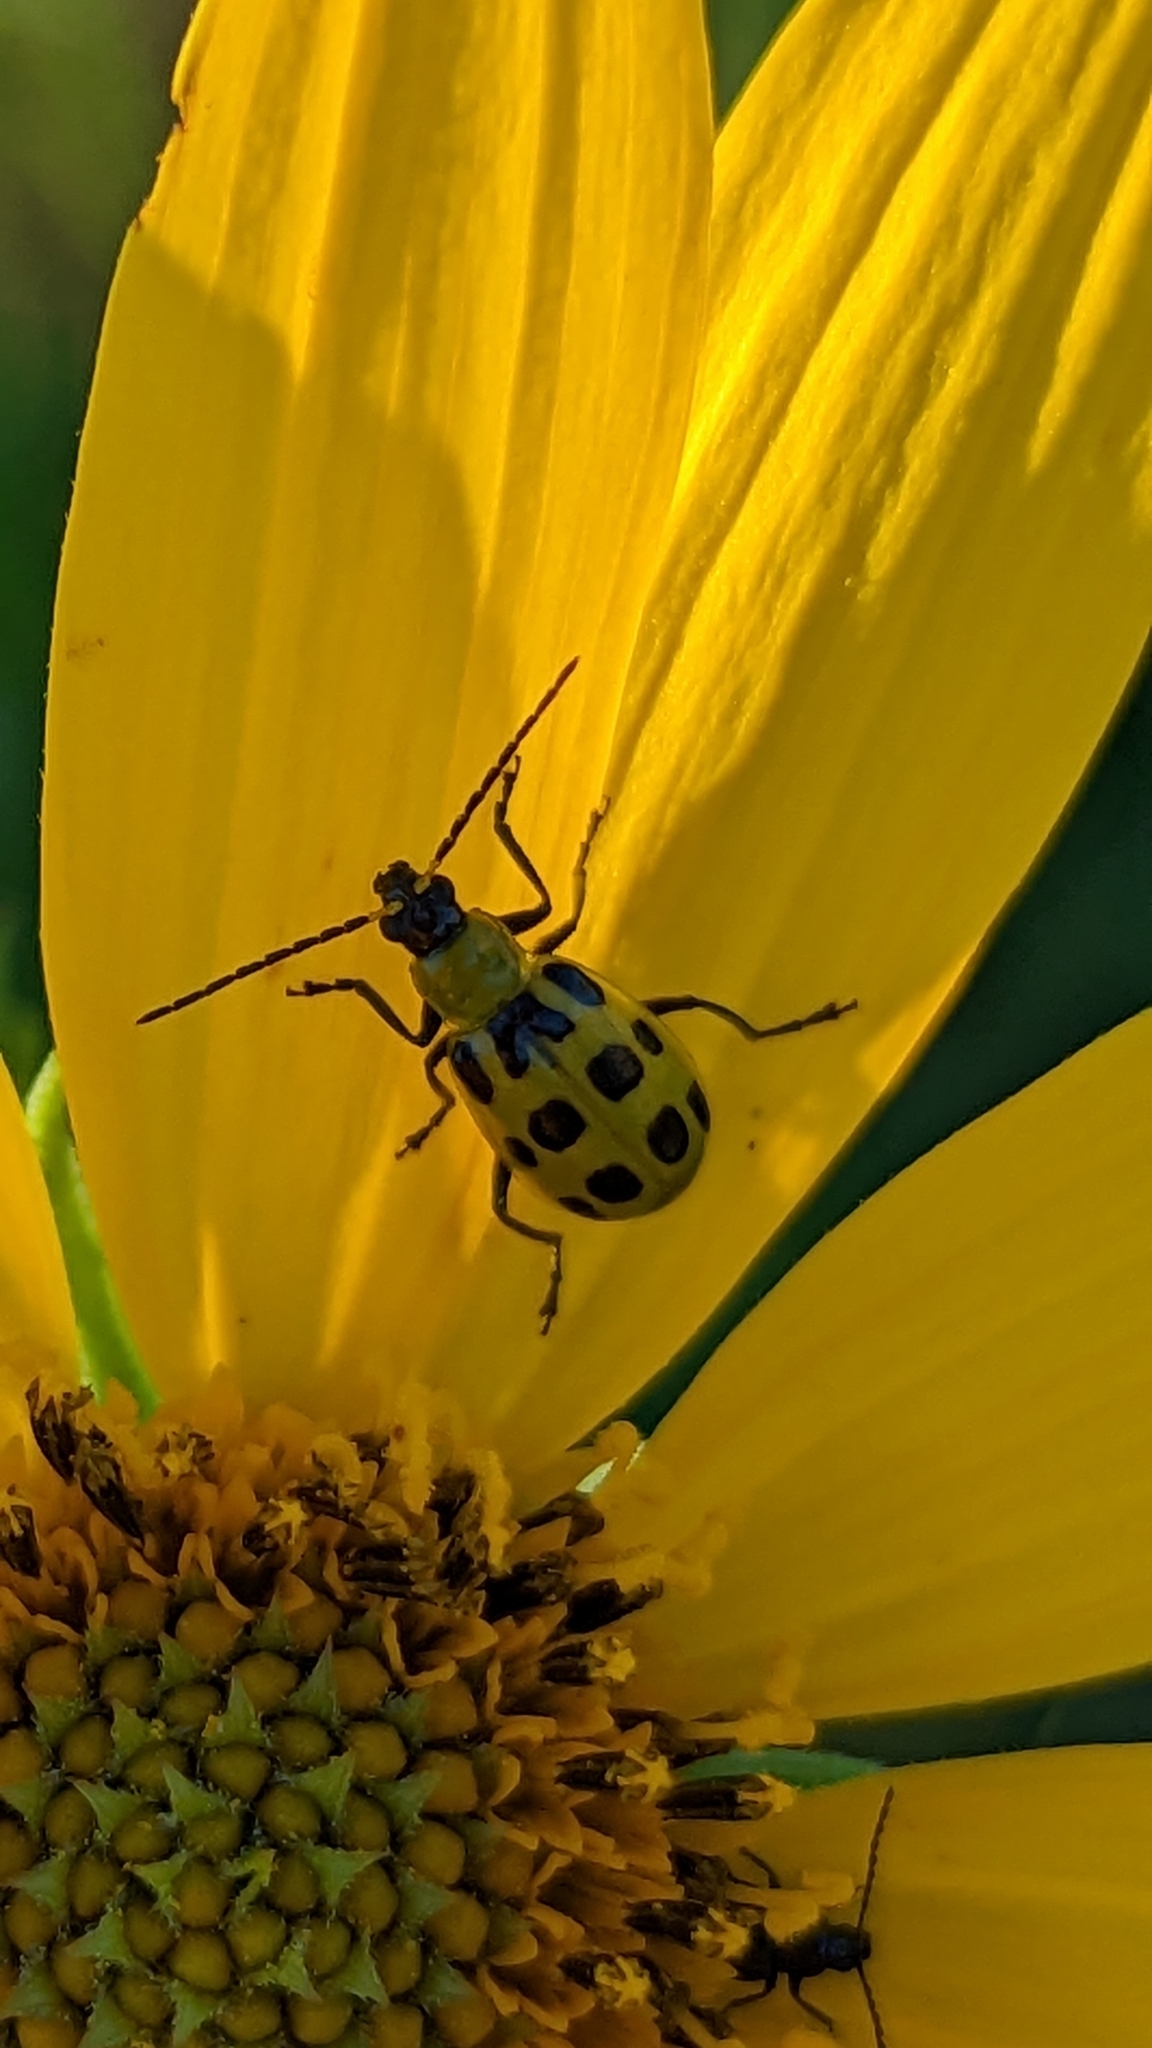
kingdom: Animalia
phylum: Arthropoda
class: Insecta
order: Coleoptera
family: Chrysomelidae
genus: Diabrotica
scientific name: Diabrotica undecimpunctata
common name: Spotted cucumber beetle
